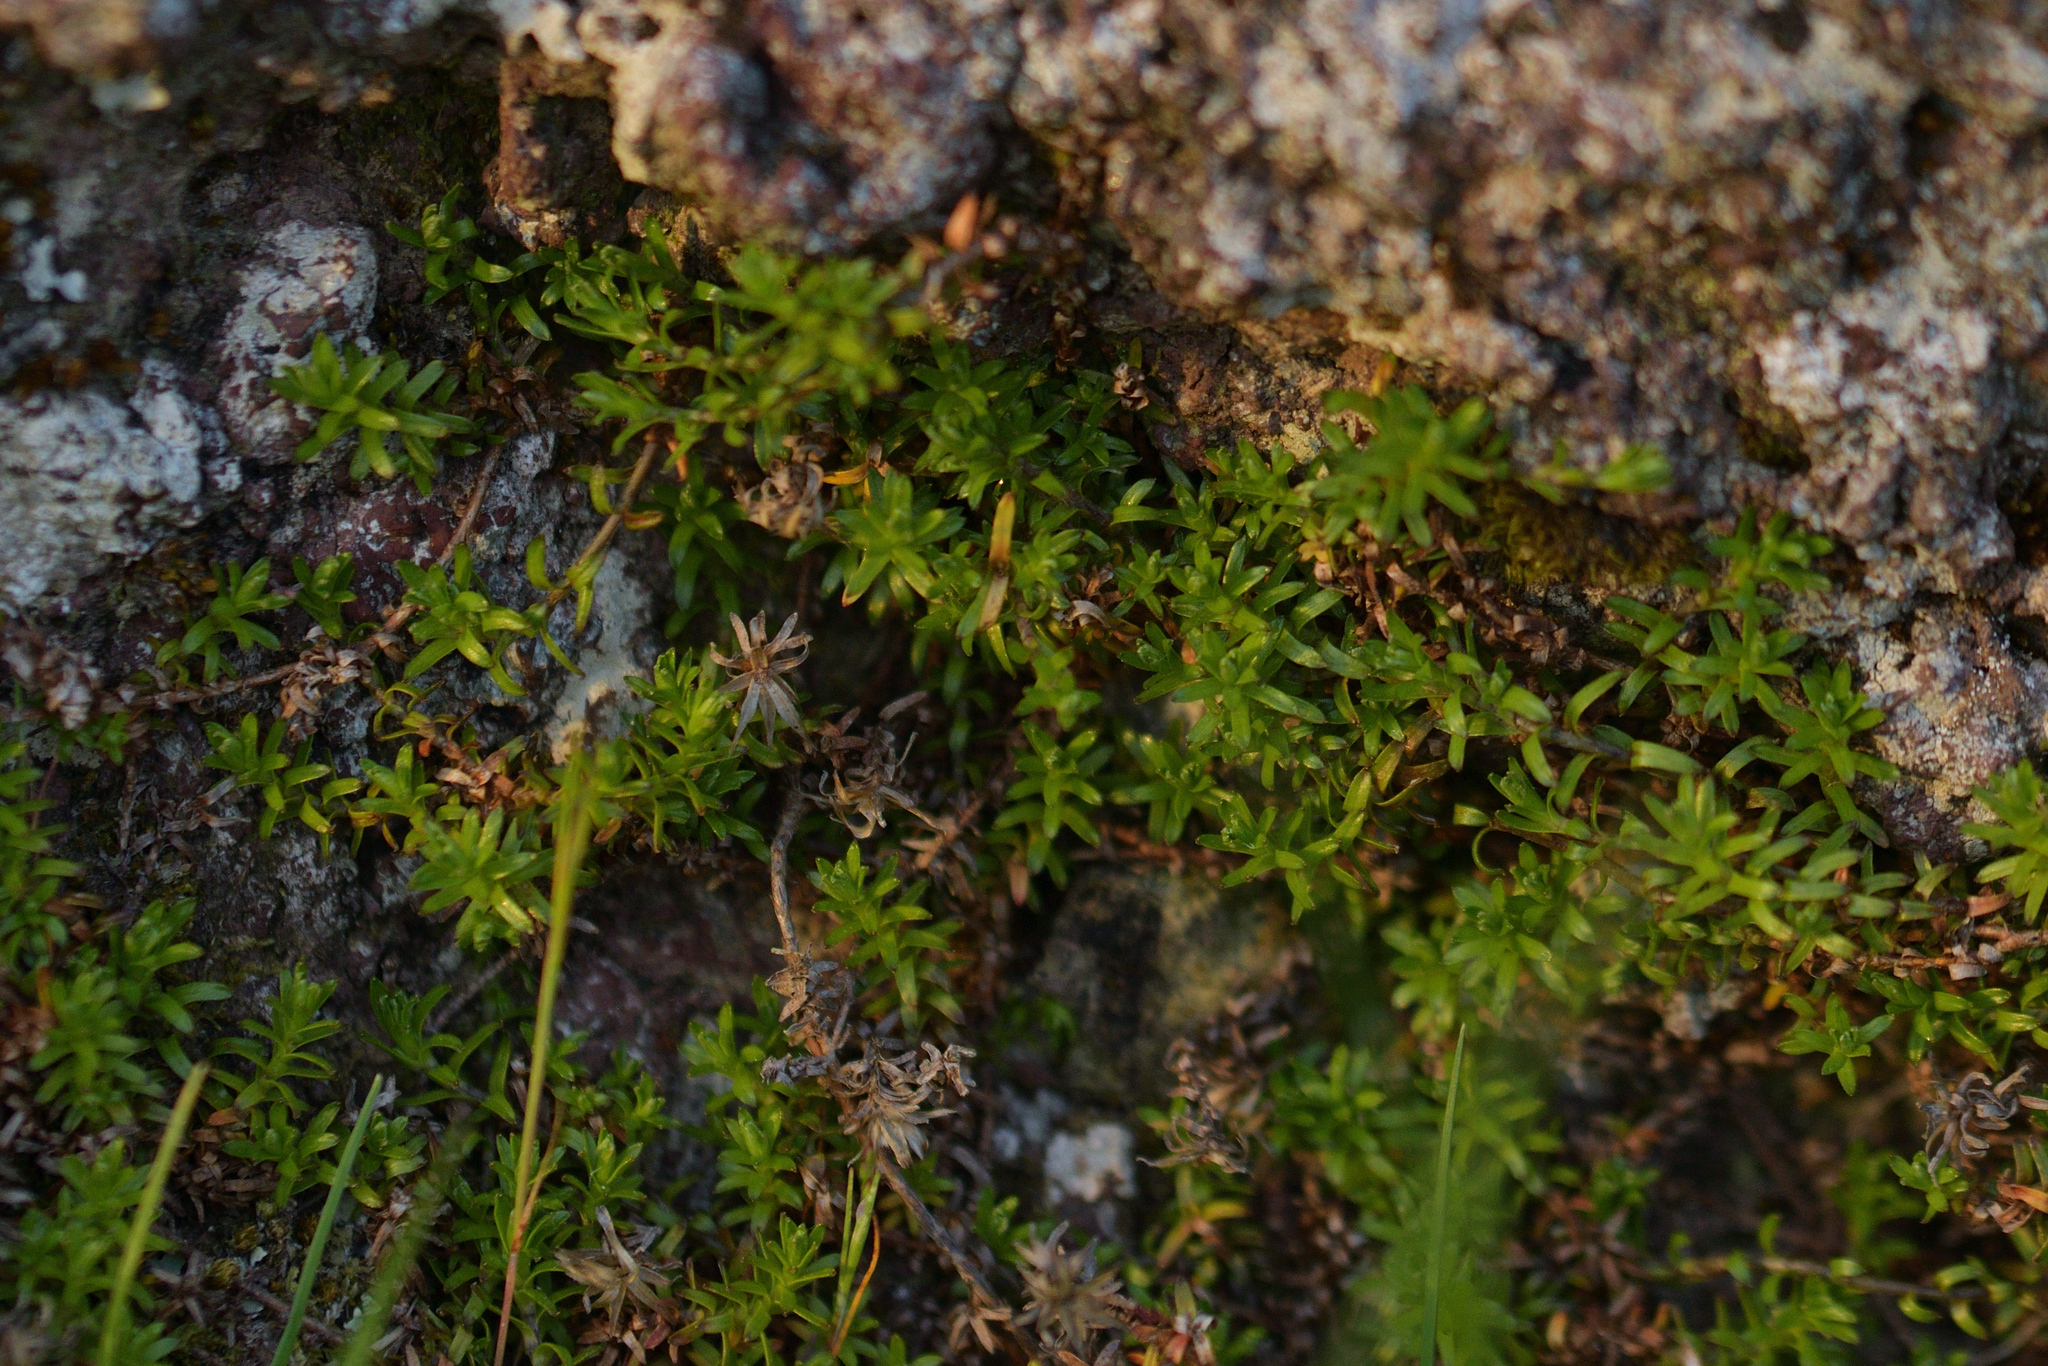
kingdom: Plantae
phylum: Tracheophyta
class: Magnoliopsida
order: Asterales
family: Asteraceae
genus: Raoulia
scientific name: Raoulia glabra
